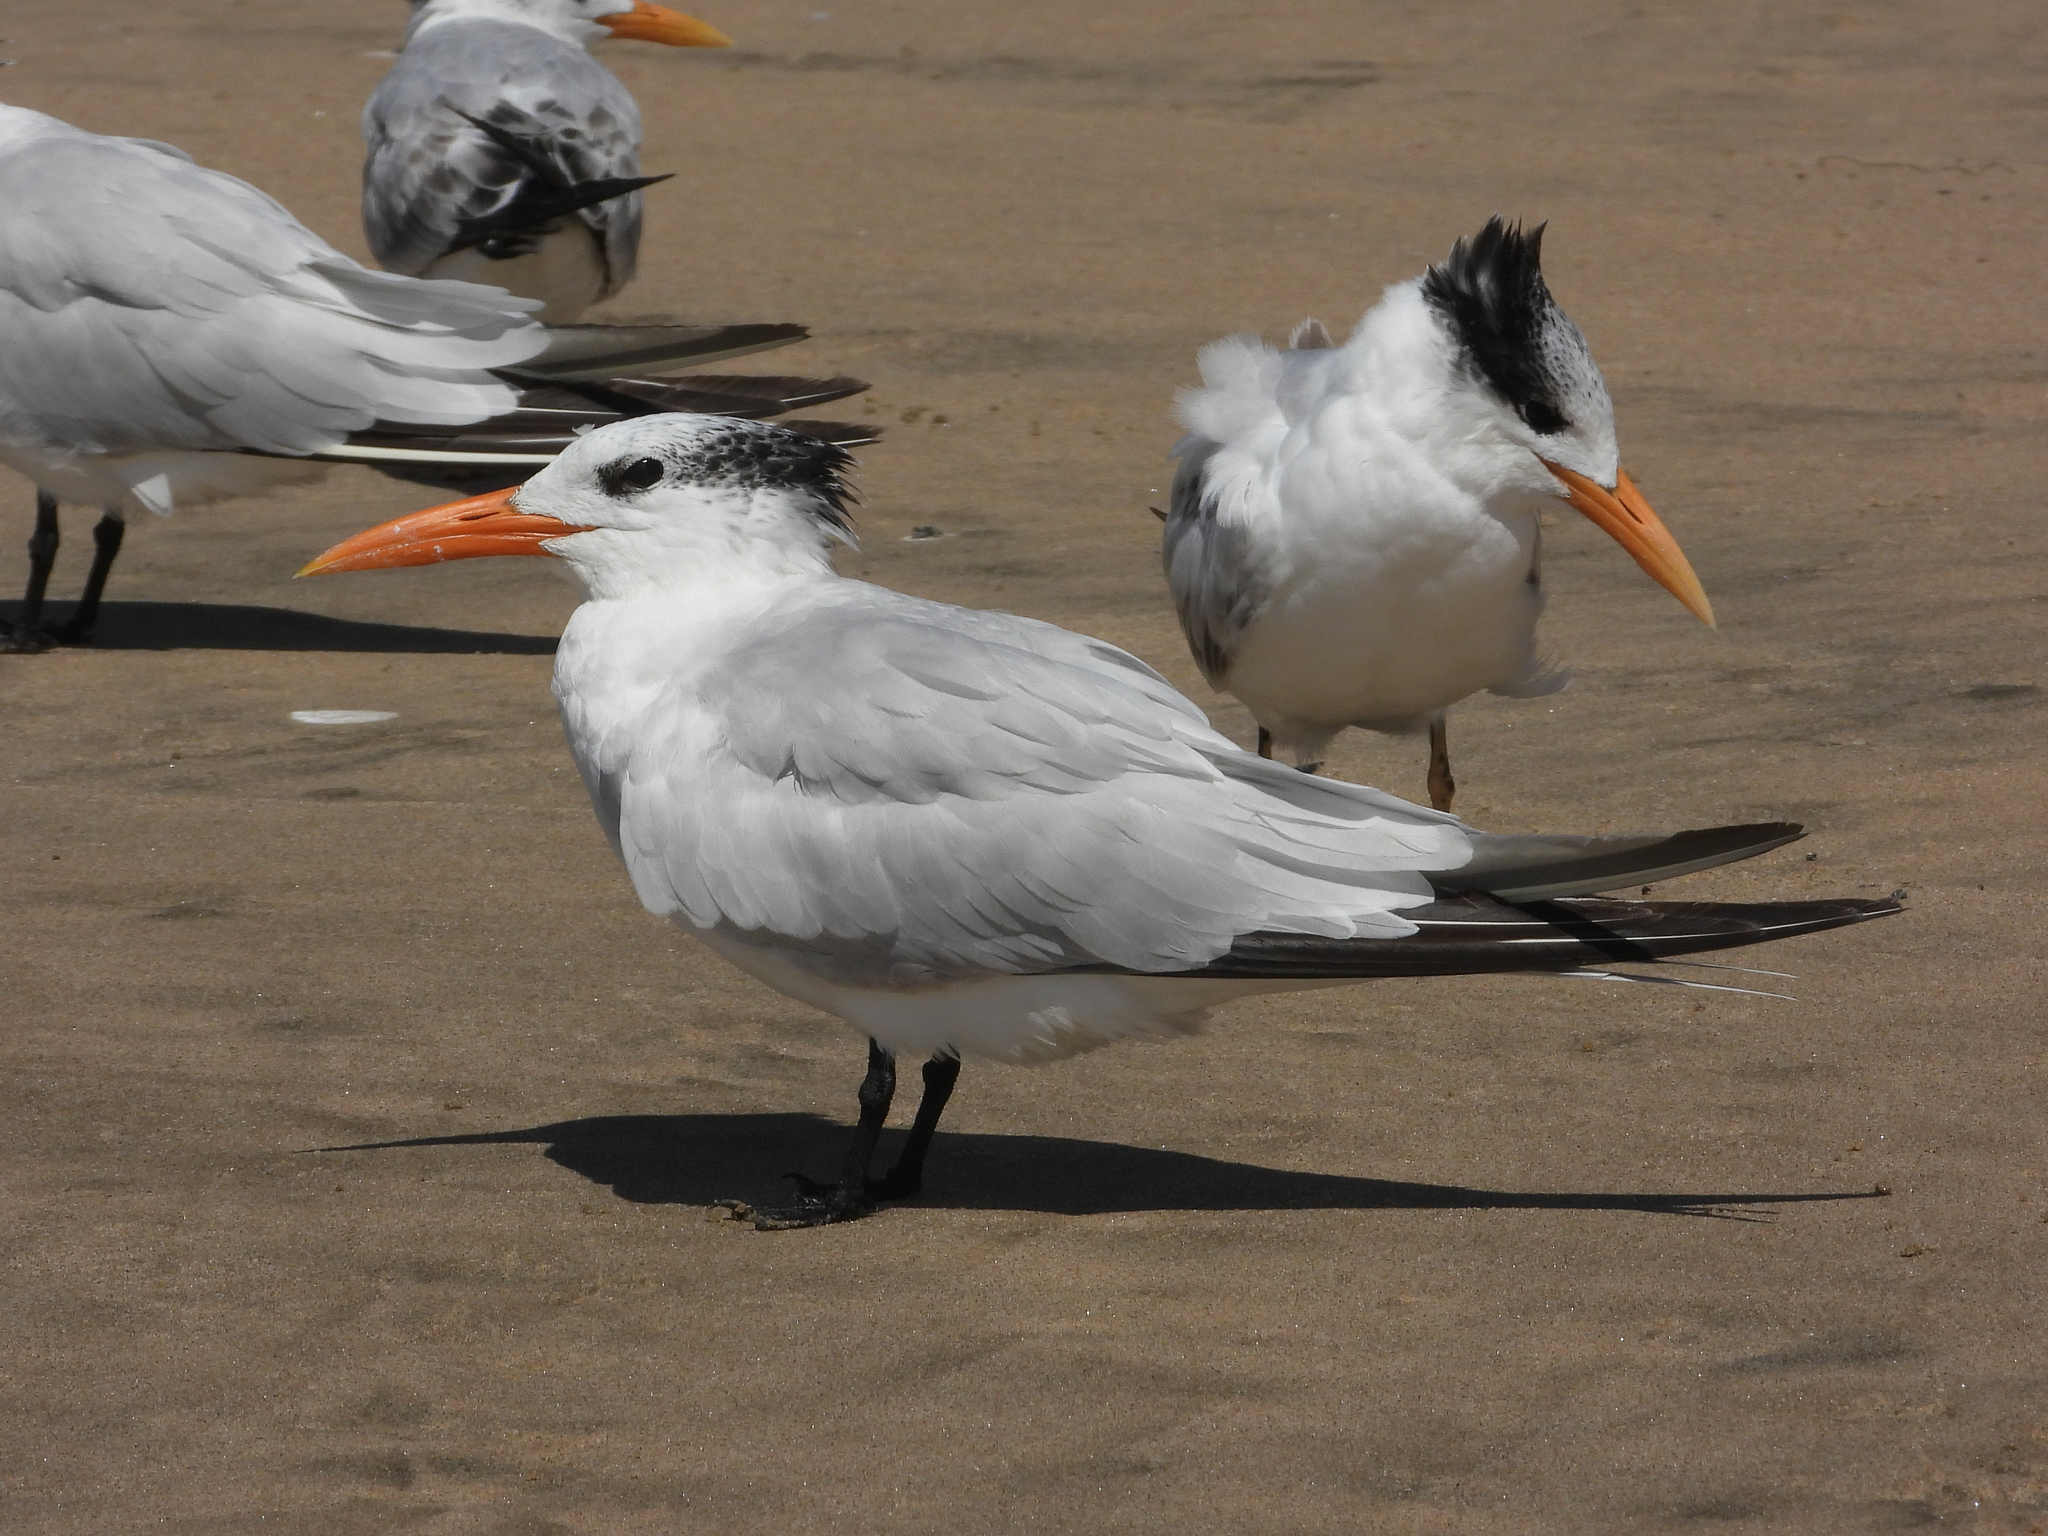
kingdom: Animalia
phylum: Chordata
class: Aves
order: Charadriiformes
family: Laridae
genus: Thalasseus
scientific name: Thalasseus maximus
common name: Royal tern
